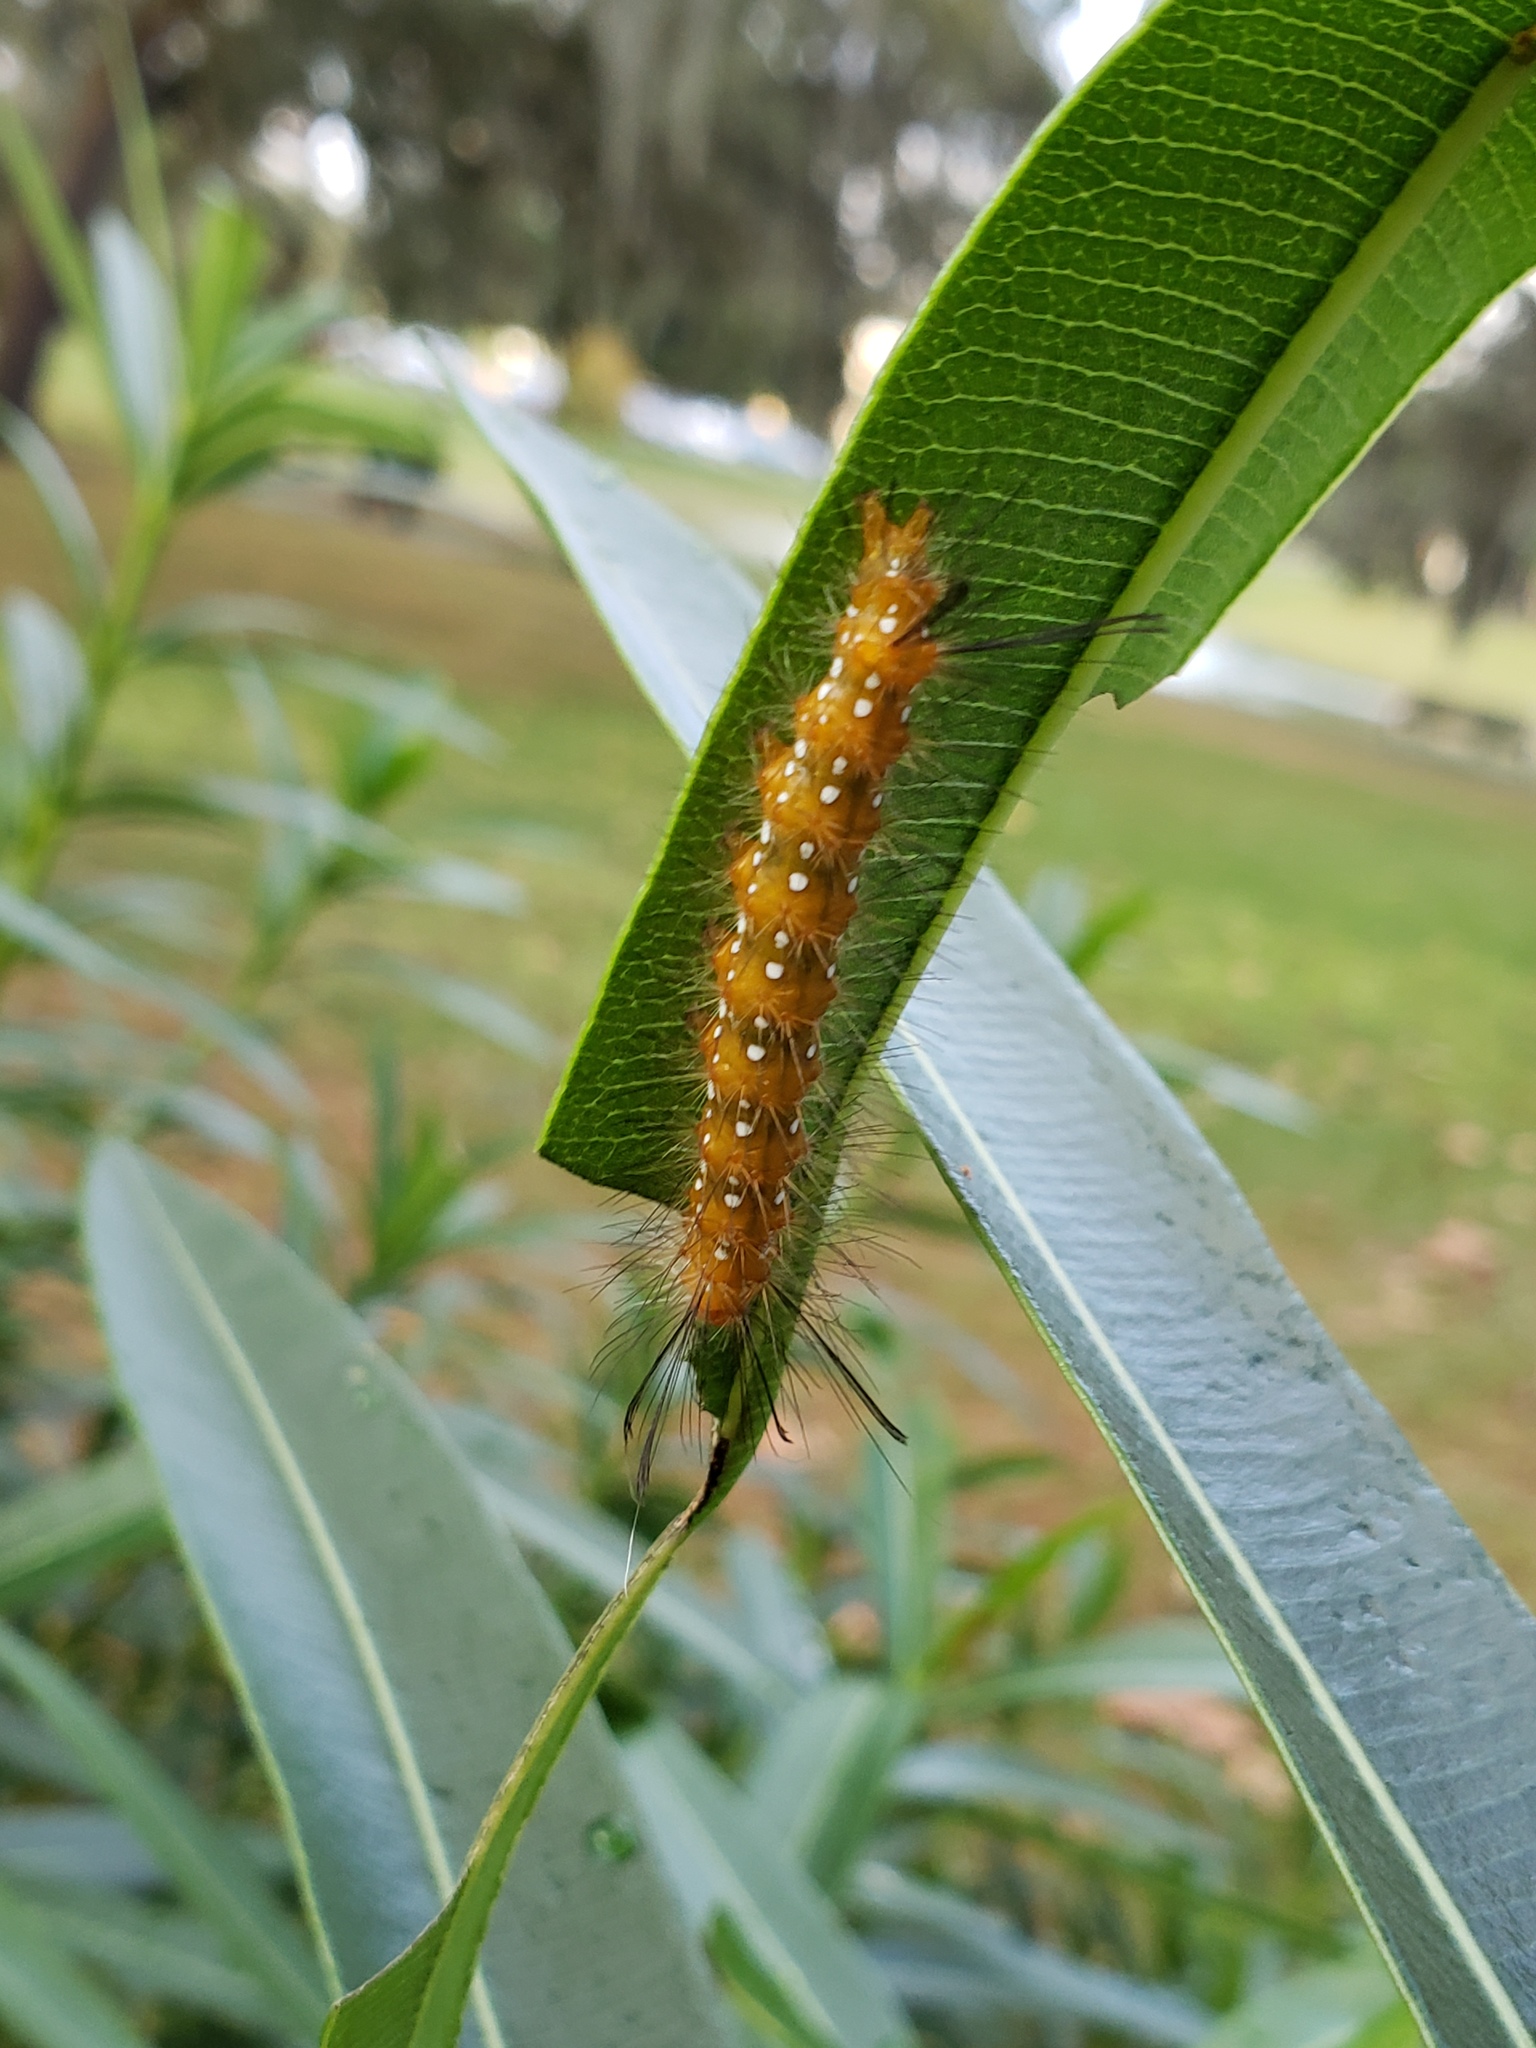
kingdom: Animalia
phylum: Arthropoda
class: Insecta
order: Lepidoptera
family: Erebidae
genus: Empyreuma
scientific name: Empyreuma pugione
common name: Spotted oleander caterpillar moth
